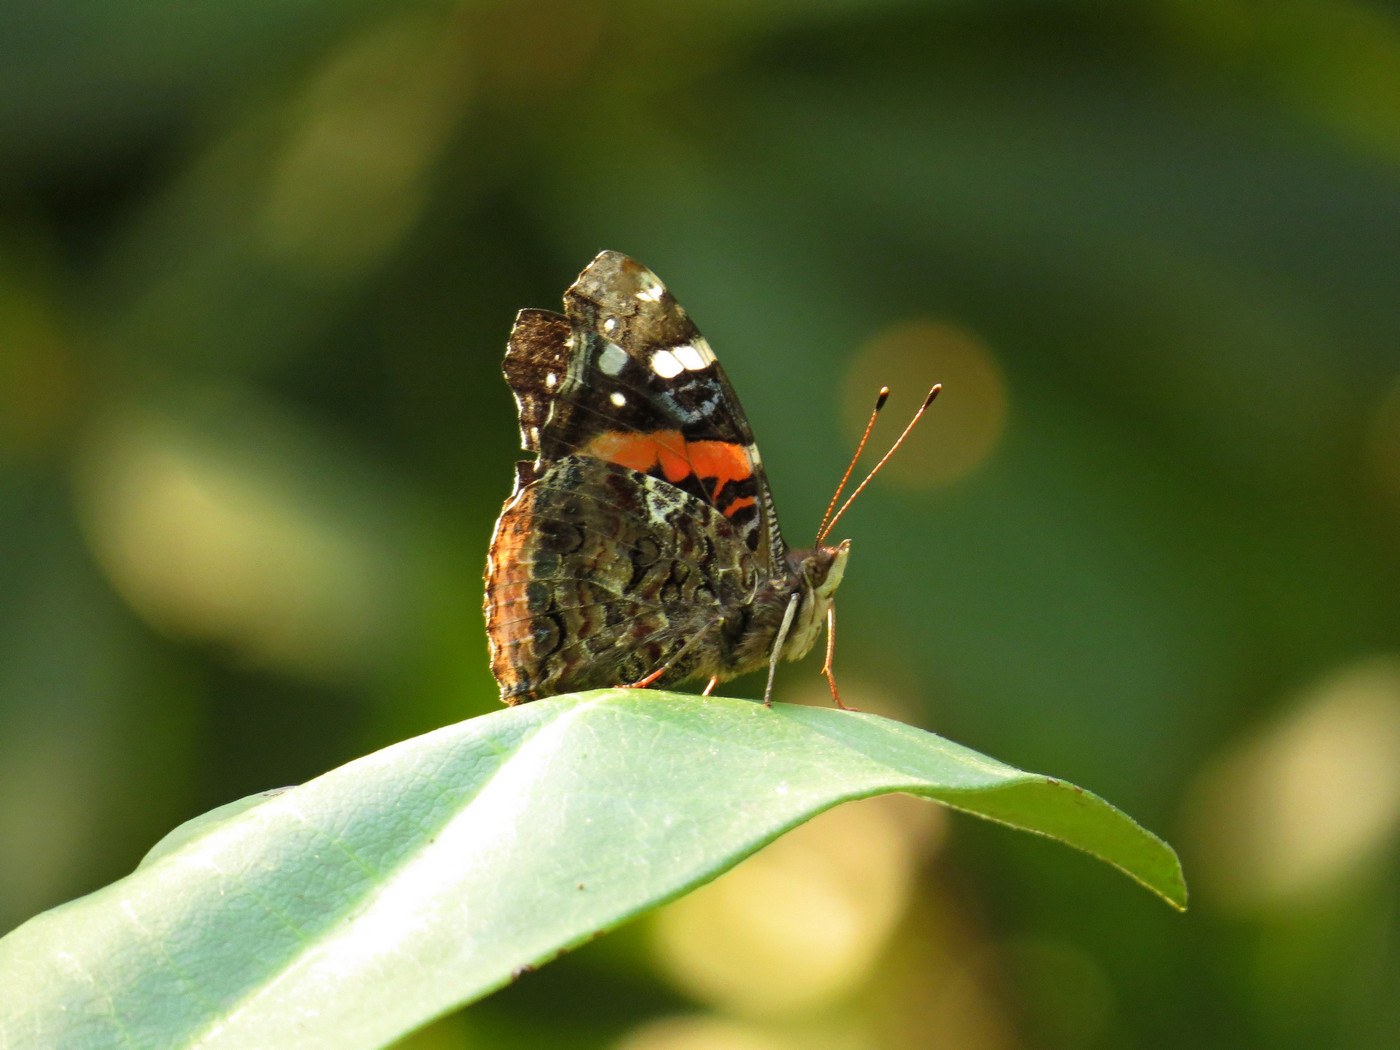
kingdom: Animalia
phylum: Arthropoda
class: Insecta
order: Lepidoptera
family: Nymphalidae
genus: Vanessa
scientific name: Vanessa atalanta
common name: Red admiral
